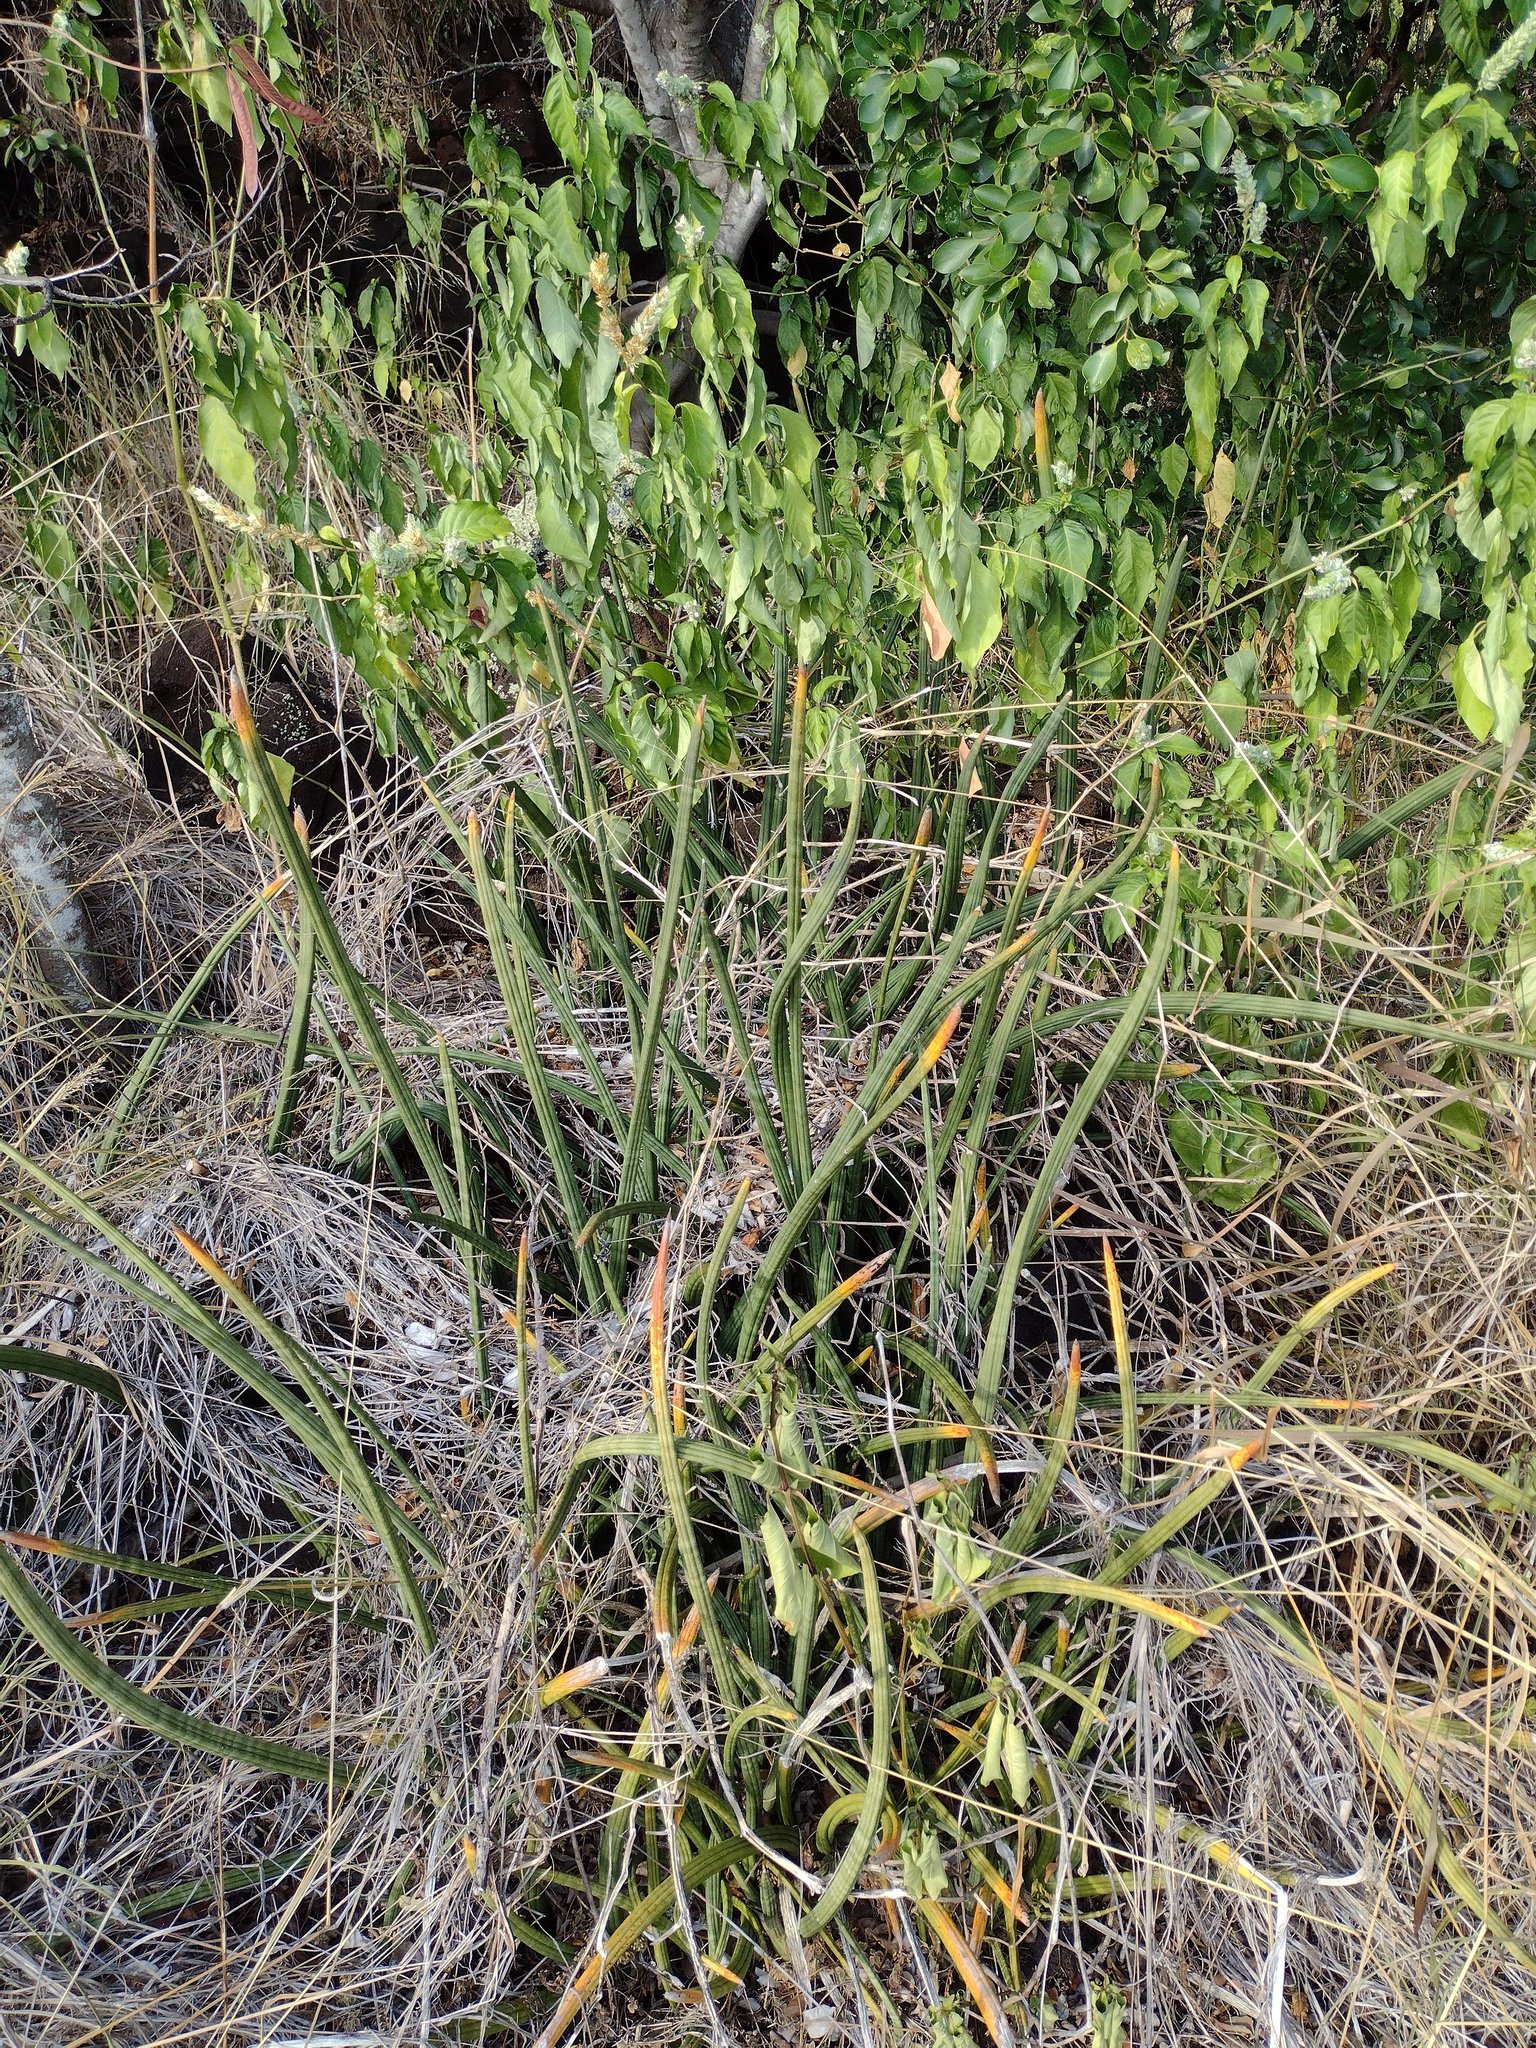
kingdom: Plantae
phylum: Tracheophyta
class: Liliopsida
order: Asparagales
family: Asparagaceae
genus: Dracaena
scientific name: Dracaena angolensis
